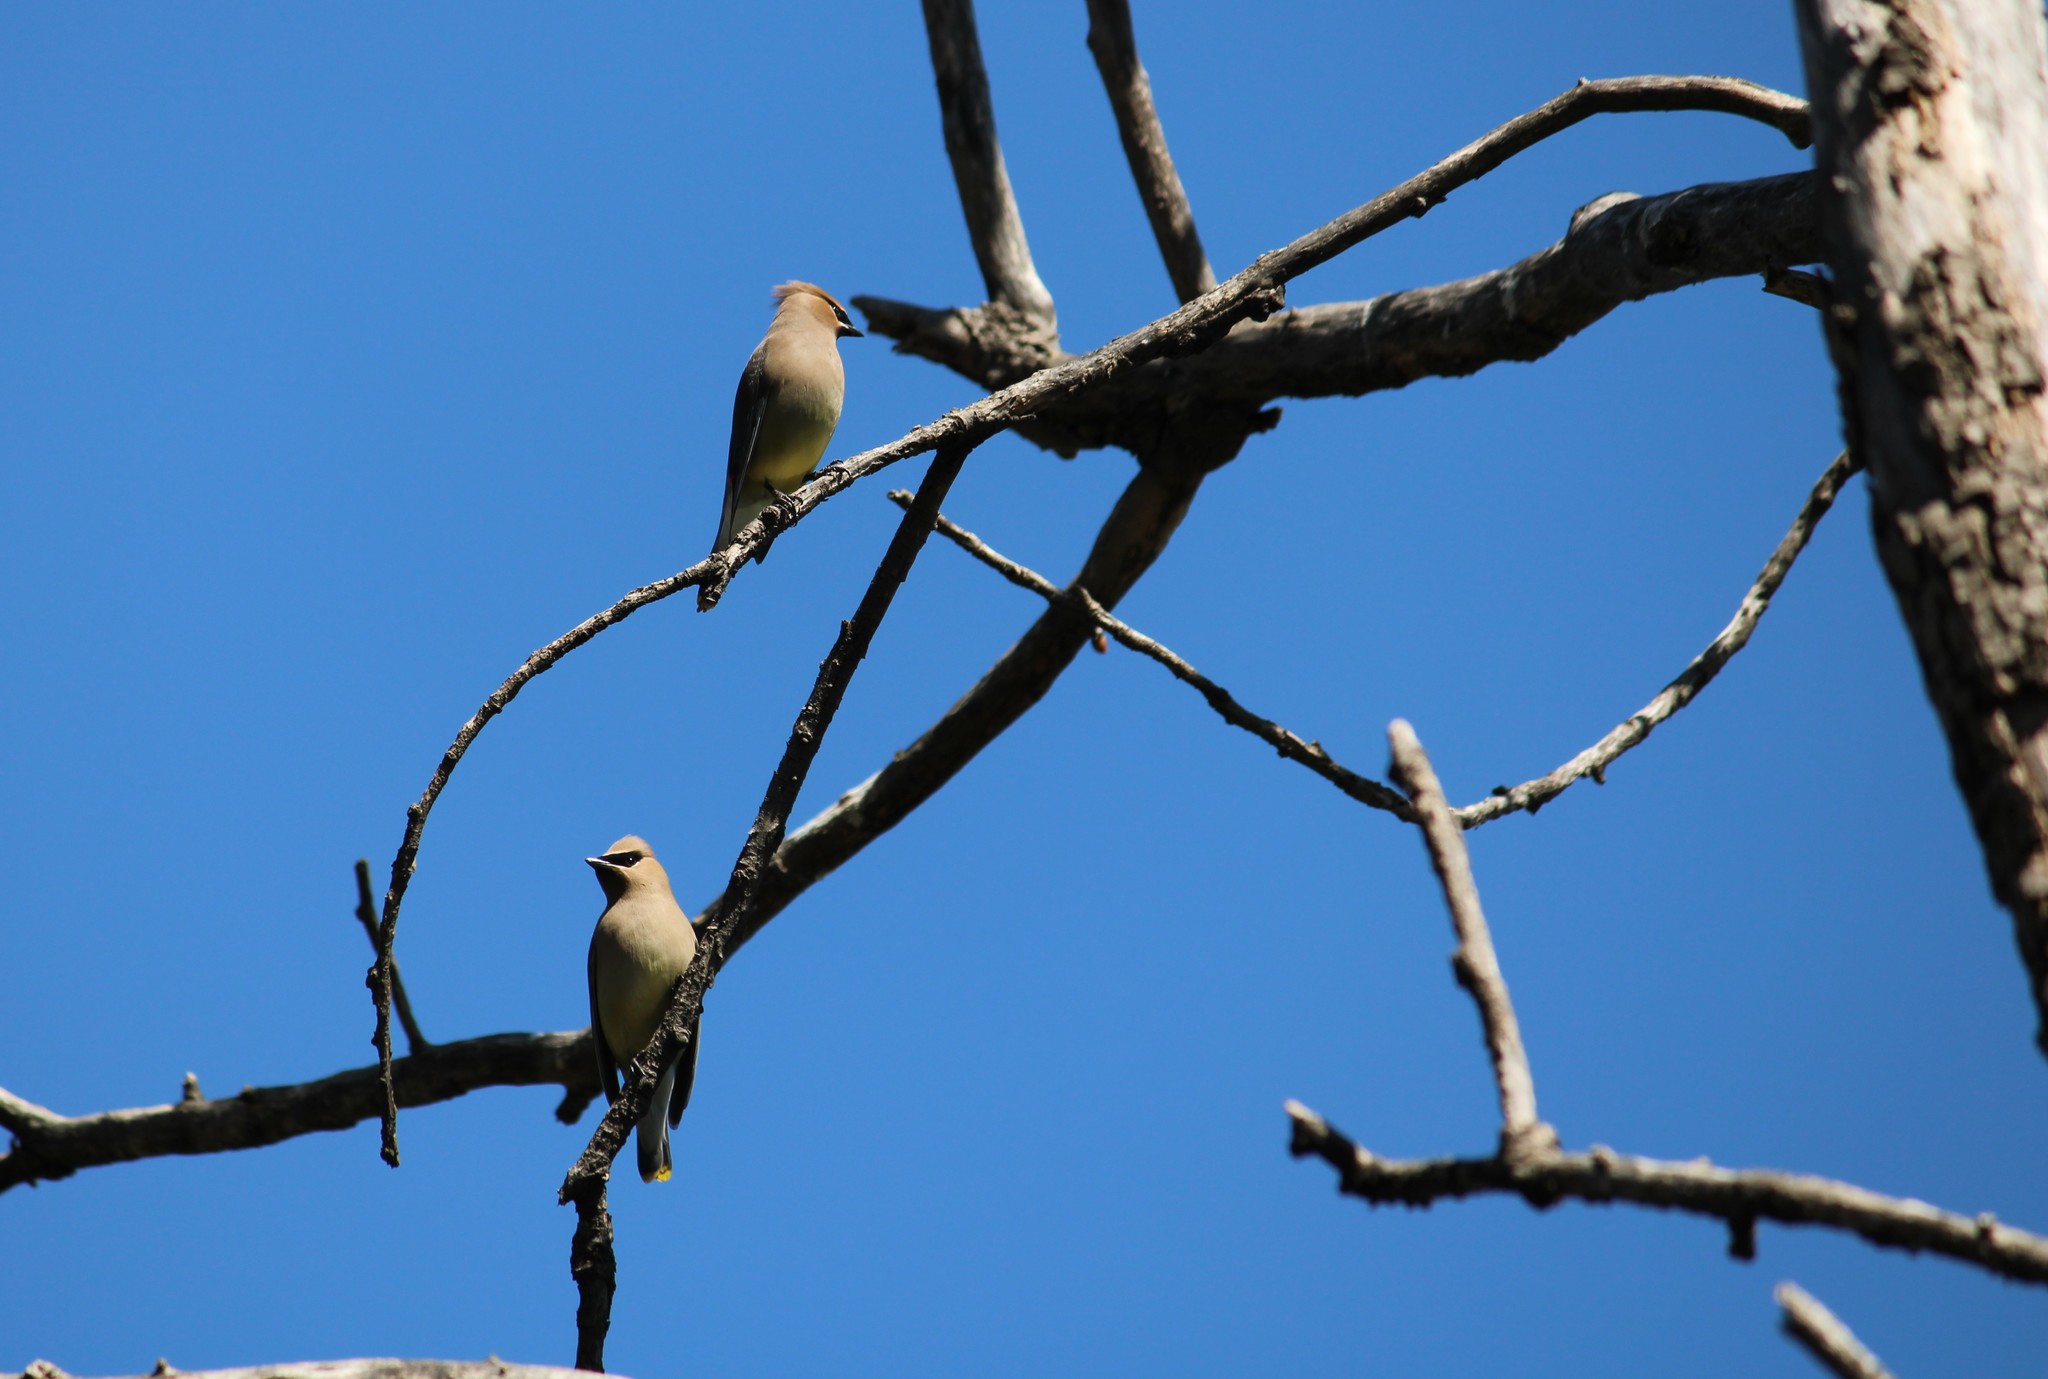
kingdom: Animalia
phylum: Chordata
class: Aves
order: Passeriformes
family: Bombycillidae
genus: Bombycilla
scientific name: Bombycilla cedrorum
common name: Cedar waxwing
